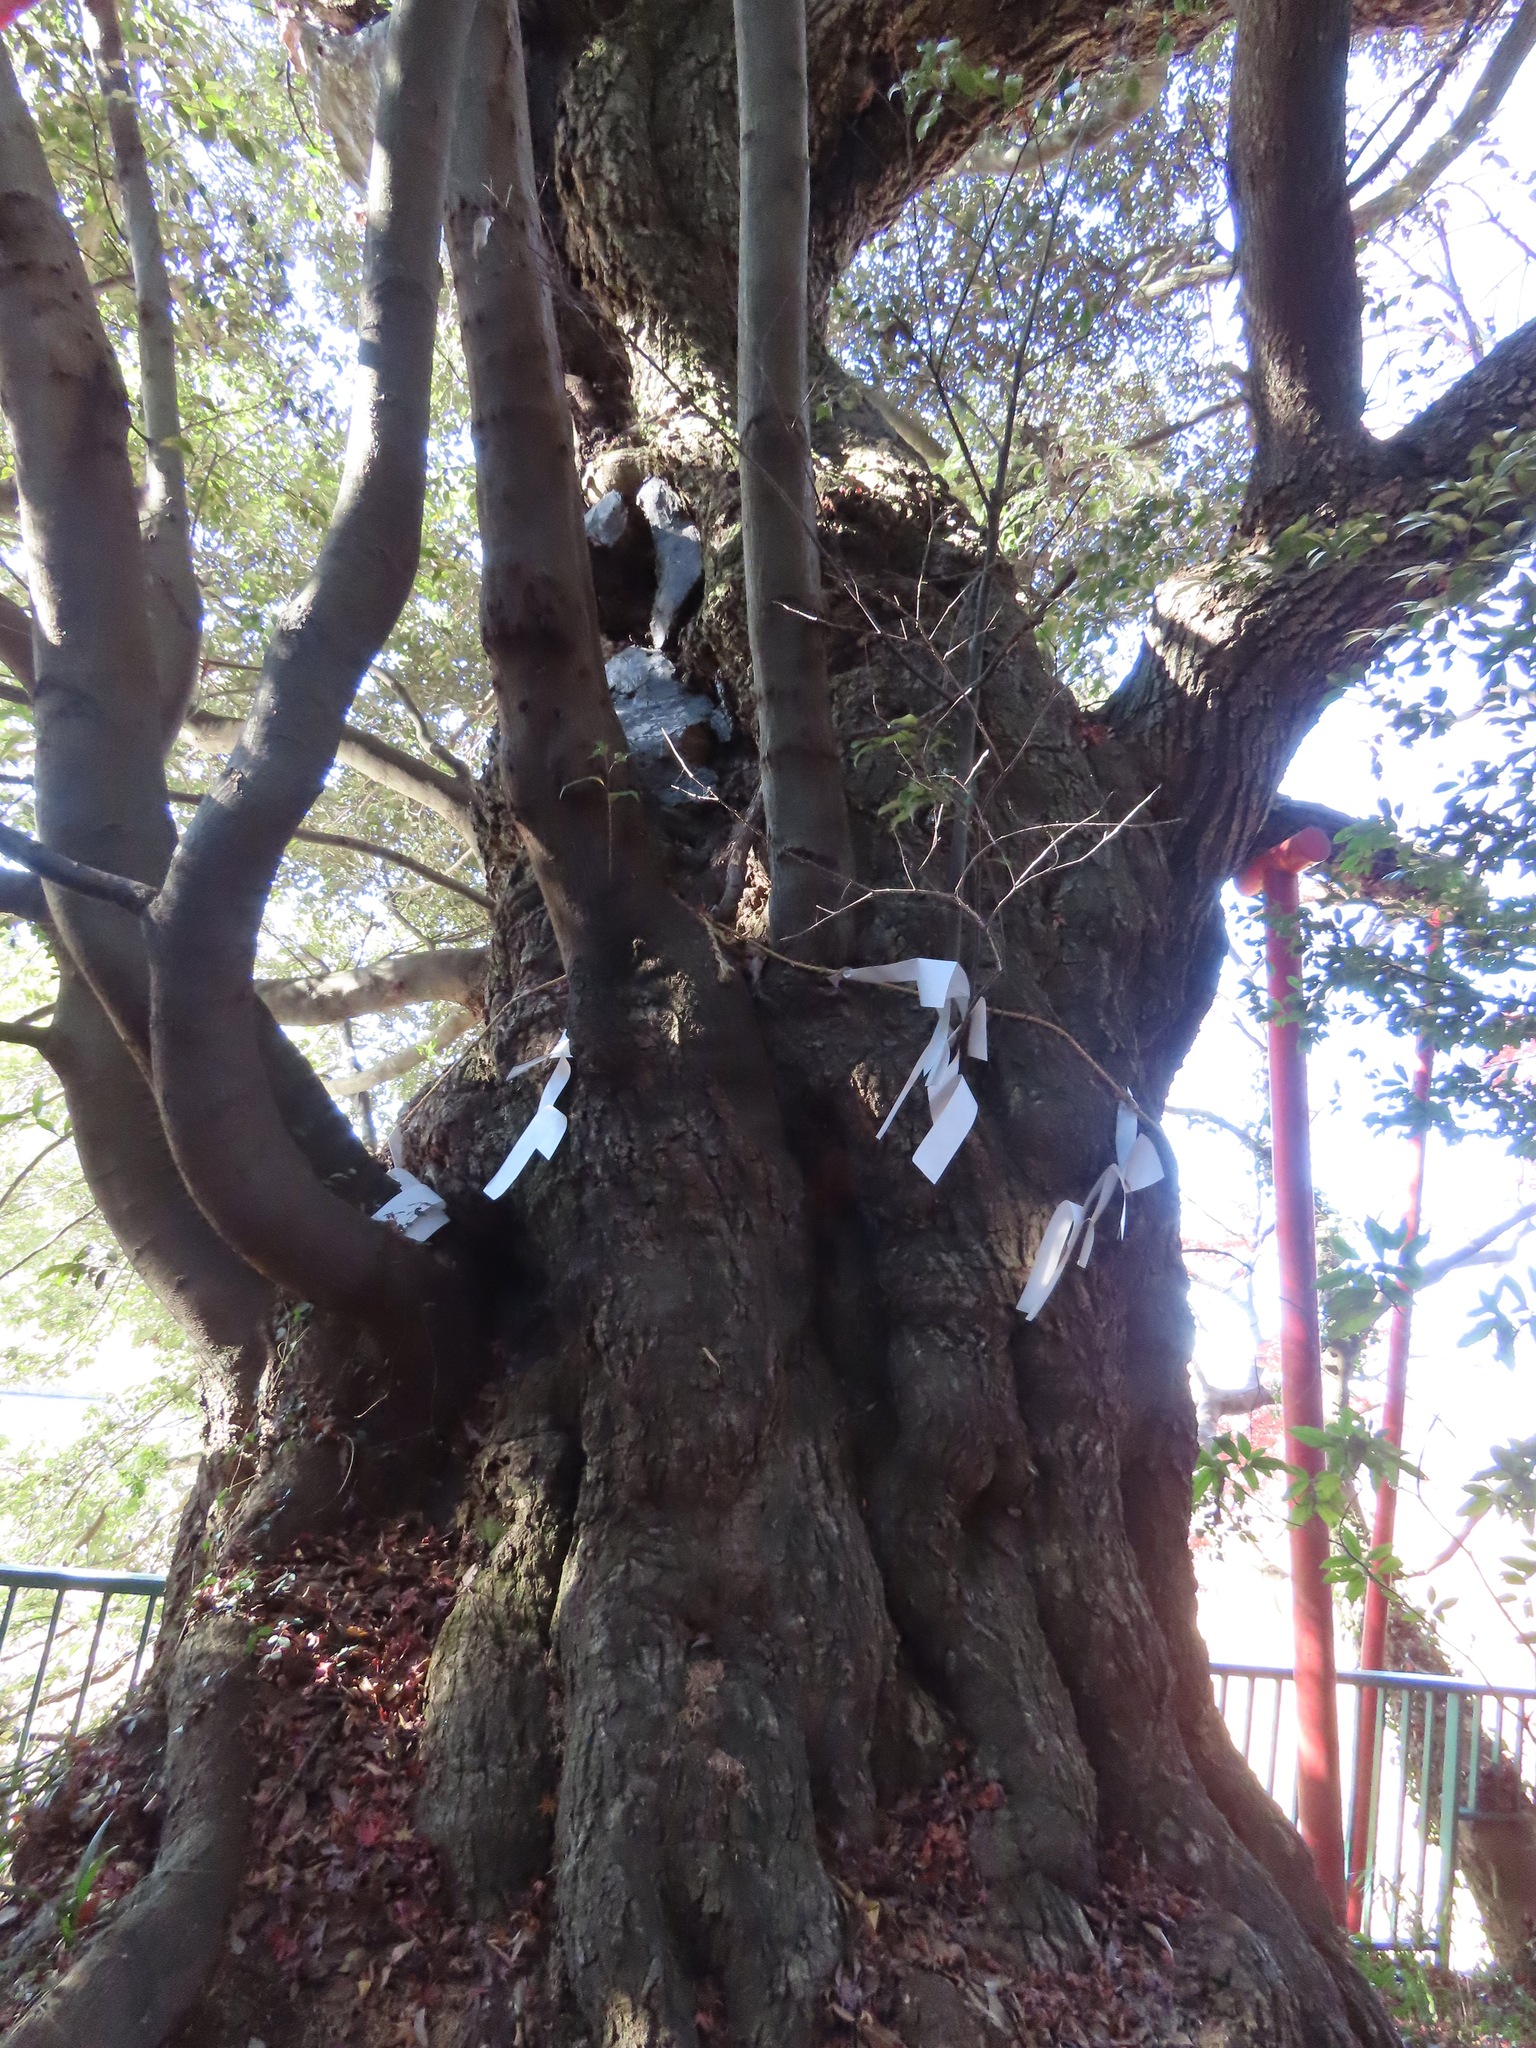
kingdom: Plantae
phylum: Tracheophyta
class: Magnoliopsida
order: Fagales
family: Fagaceae
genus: Castanopsis
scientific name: Castanopsis sieboldii
